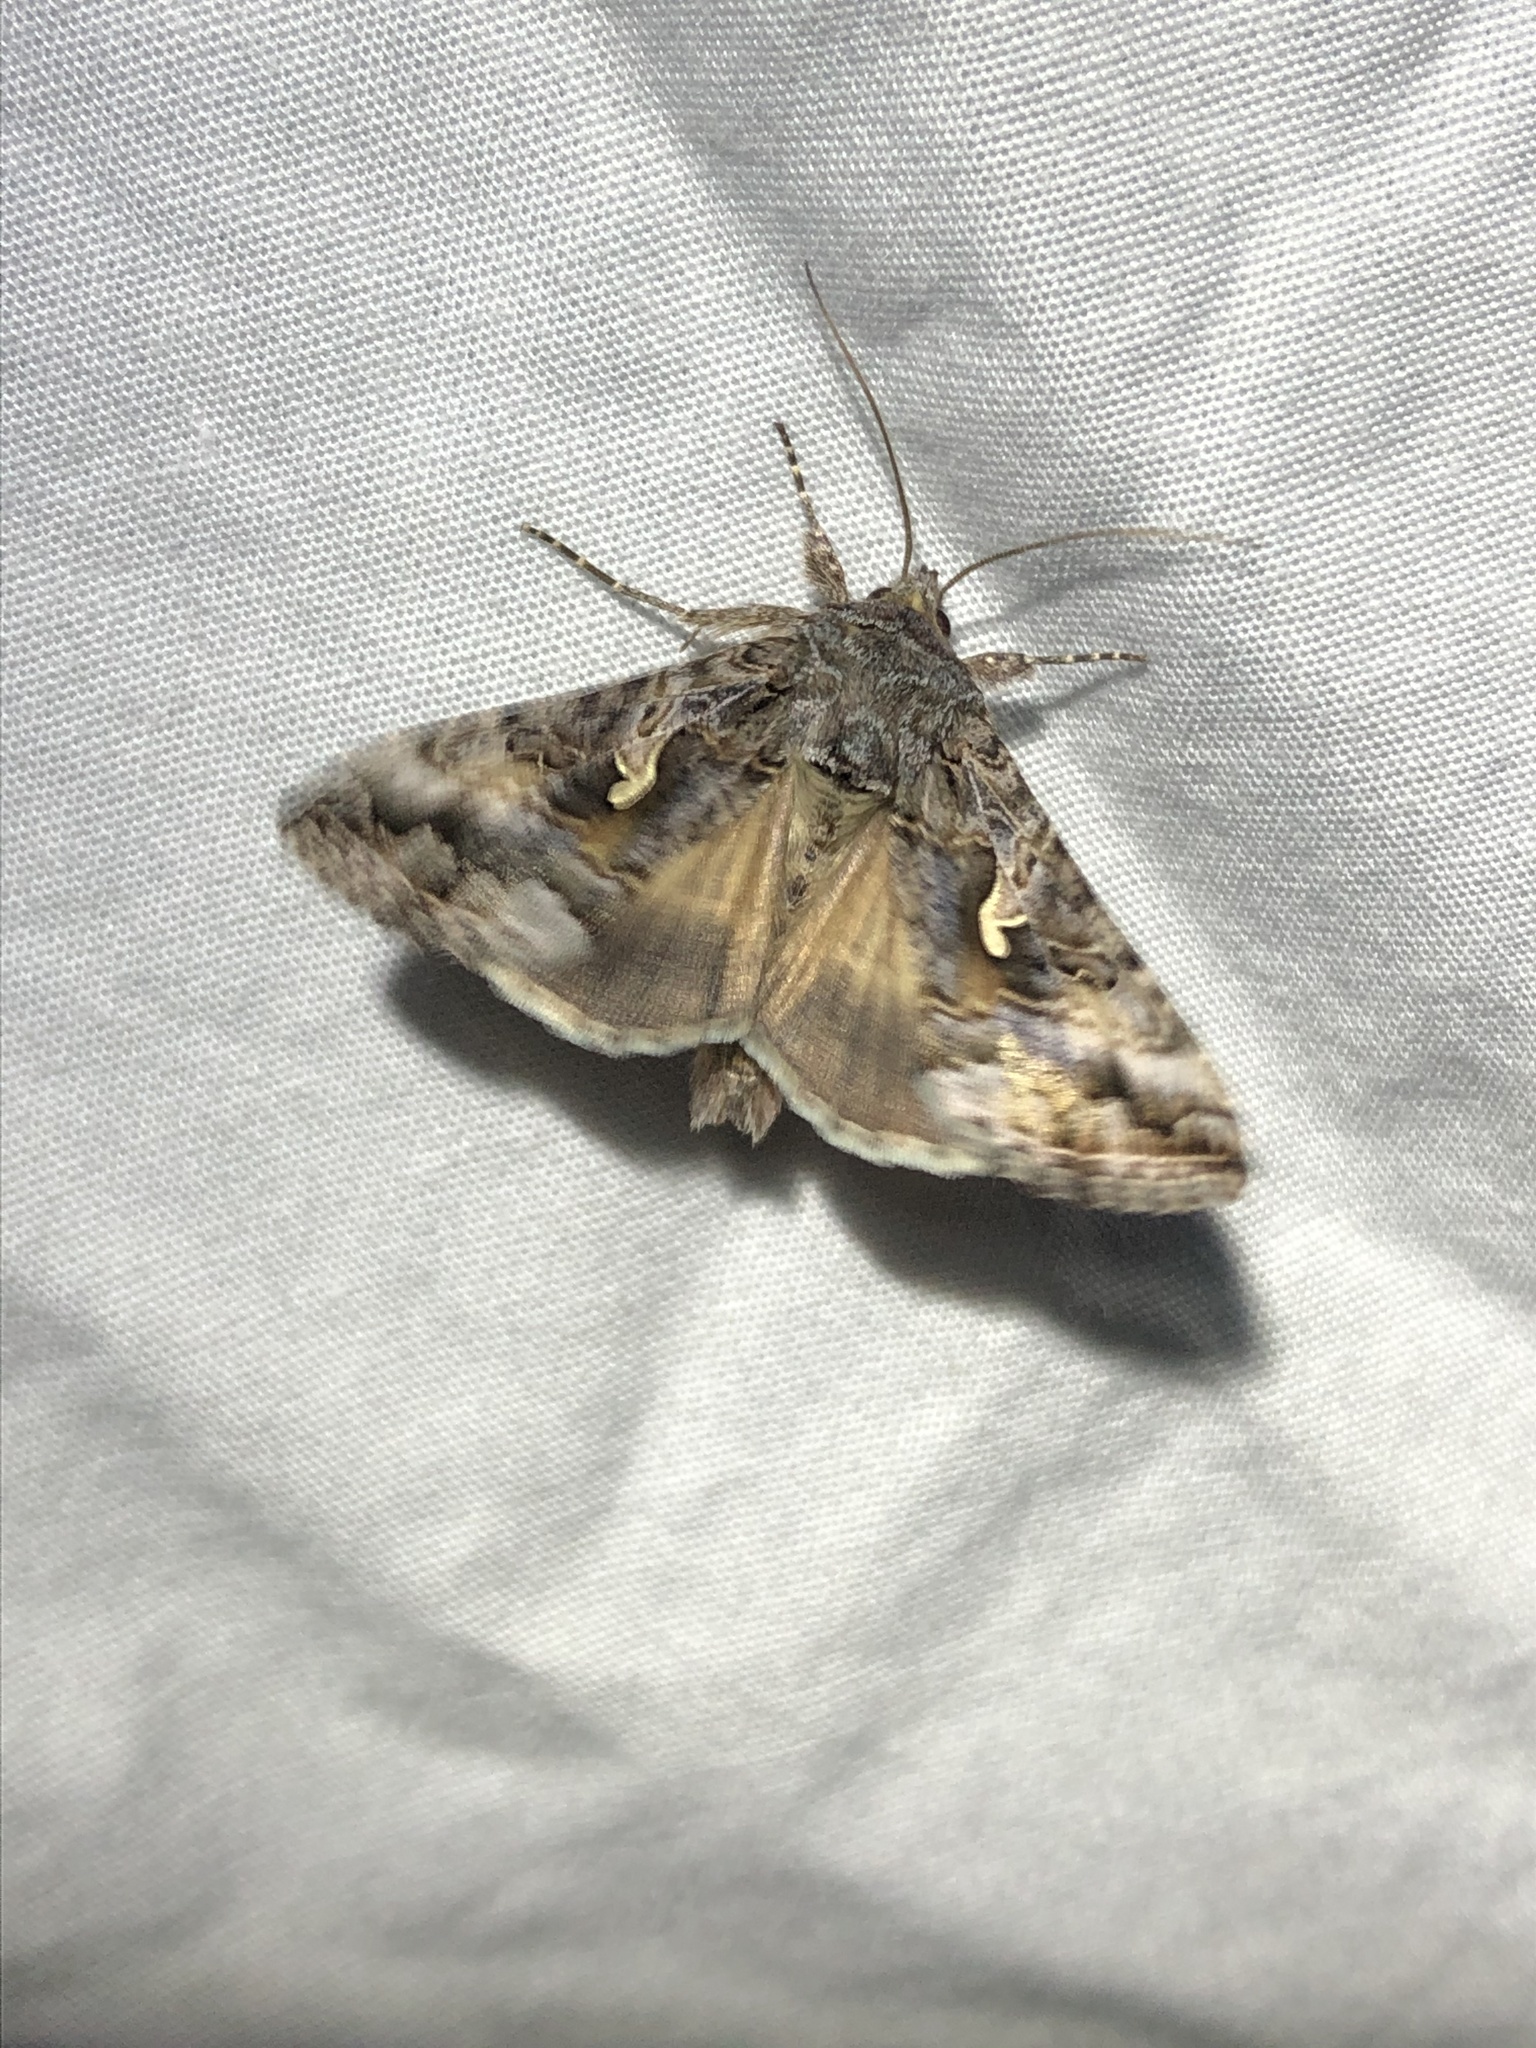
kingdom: Animalia
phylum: Arthropoda
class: Insecta
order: Lepidoptera
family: Noctuidae
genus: Autographa
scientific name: Autographa californica
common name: Alfalfa looper
